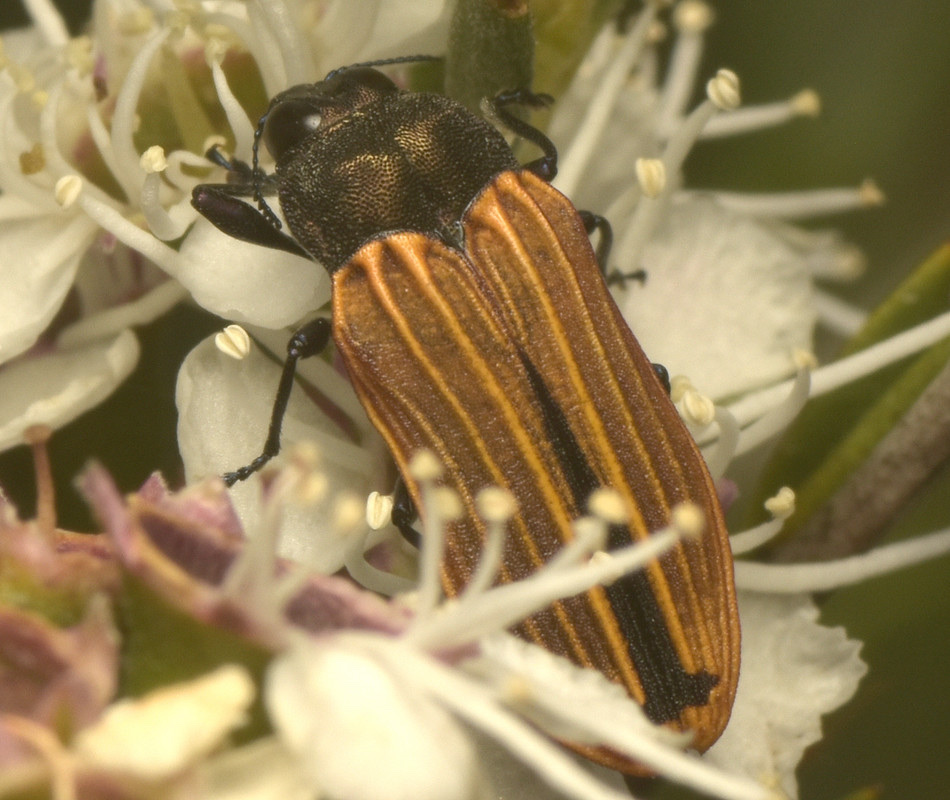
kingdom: Animalia
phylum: Arthropoda
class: Insecta
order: Coleoptera
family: Buprestidae
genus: Castiarina
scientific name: Castiarina erythroptera
